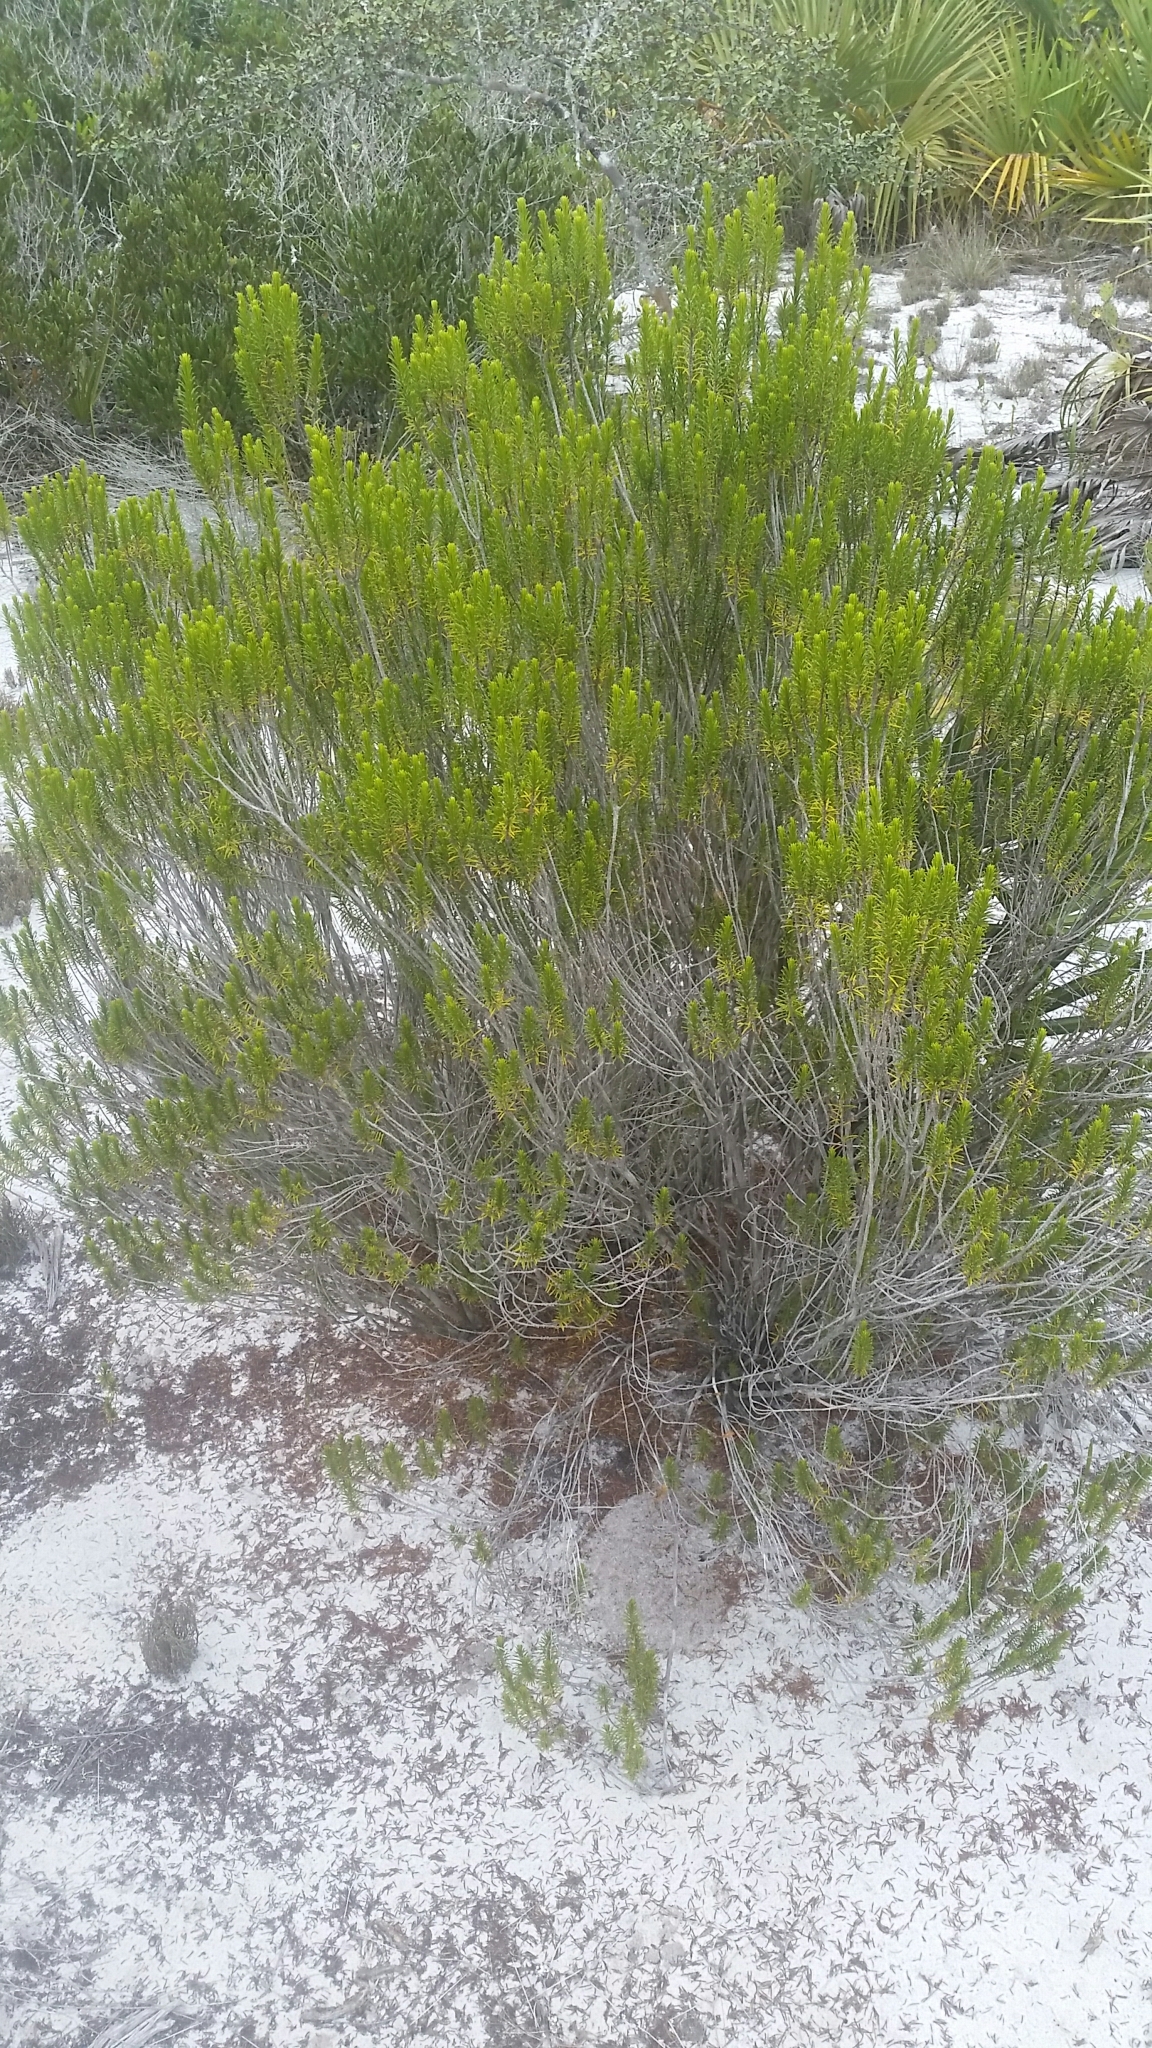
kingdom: Plantae
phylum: Tracheophyta
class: Magnoliopsida
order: Ericales
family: Ericaceae
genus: Ceratiola
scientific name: Ceratiola ericoides
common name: Sandhill-rosemary
